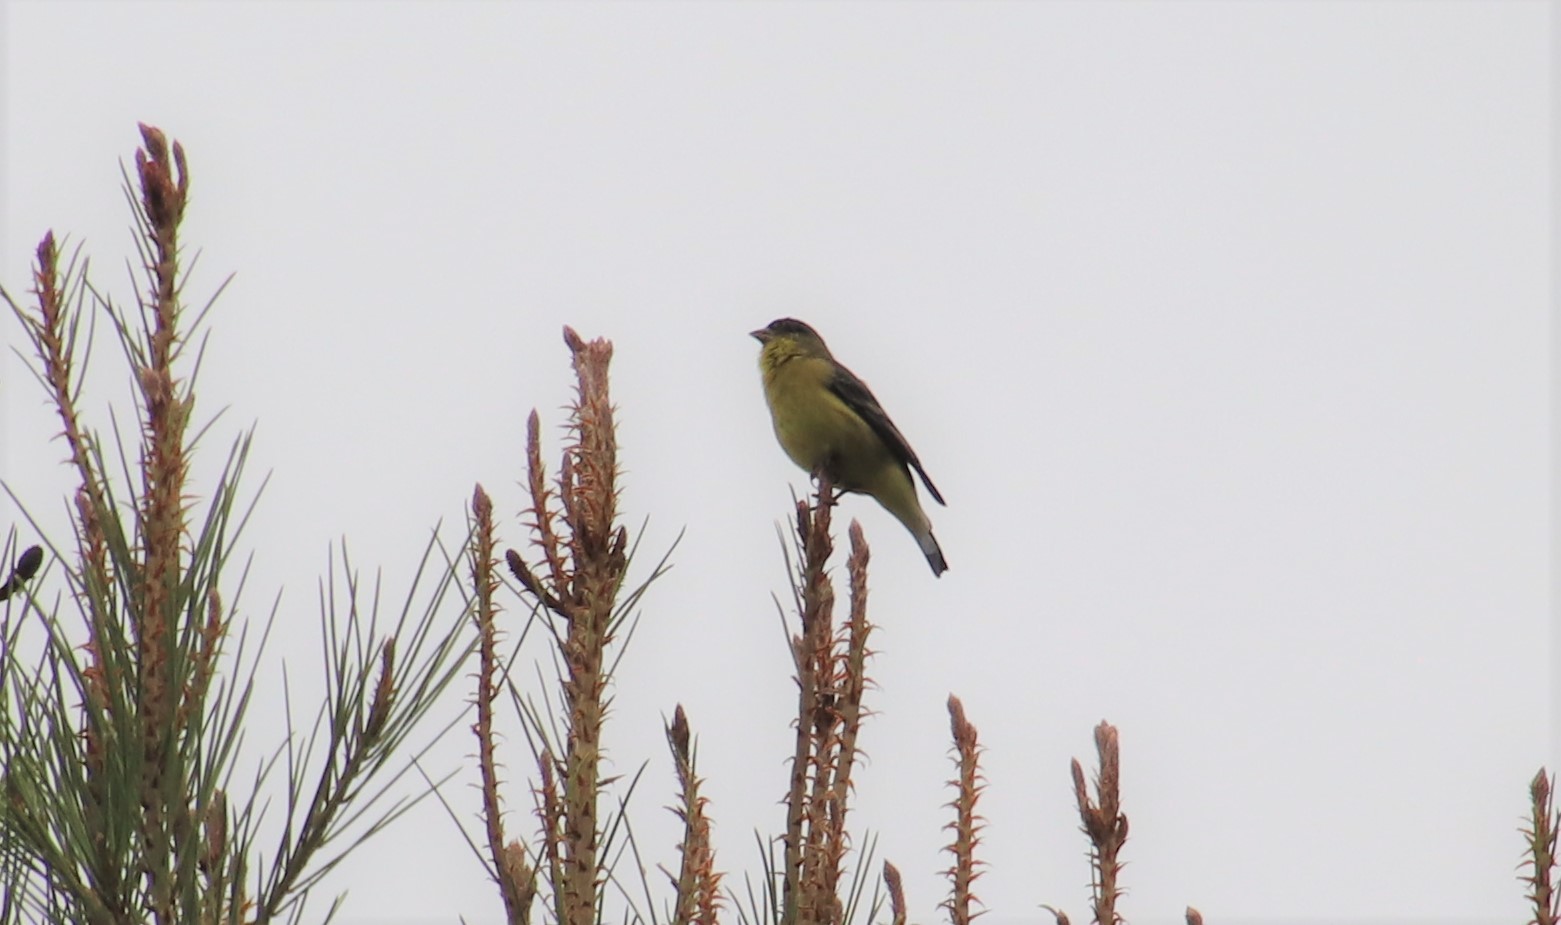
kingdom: Animalia
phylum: Chordata
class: Aves
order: Passeriformes
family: Fringillidae
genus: Spinus
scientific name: Spinus psaltria
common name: Lesser goldfinch
